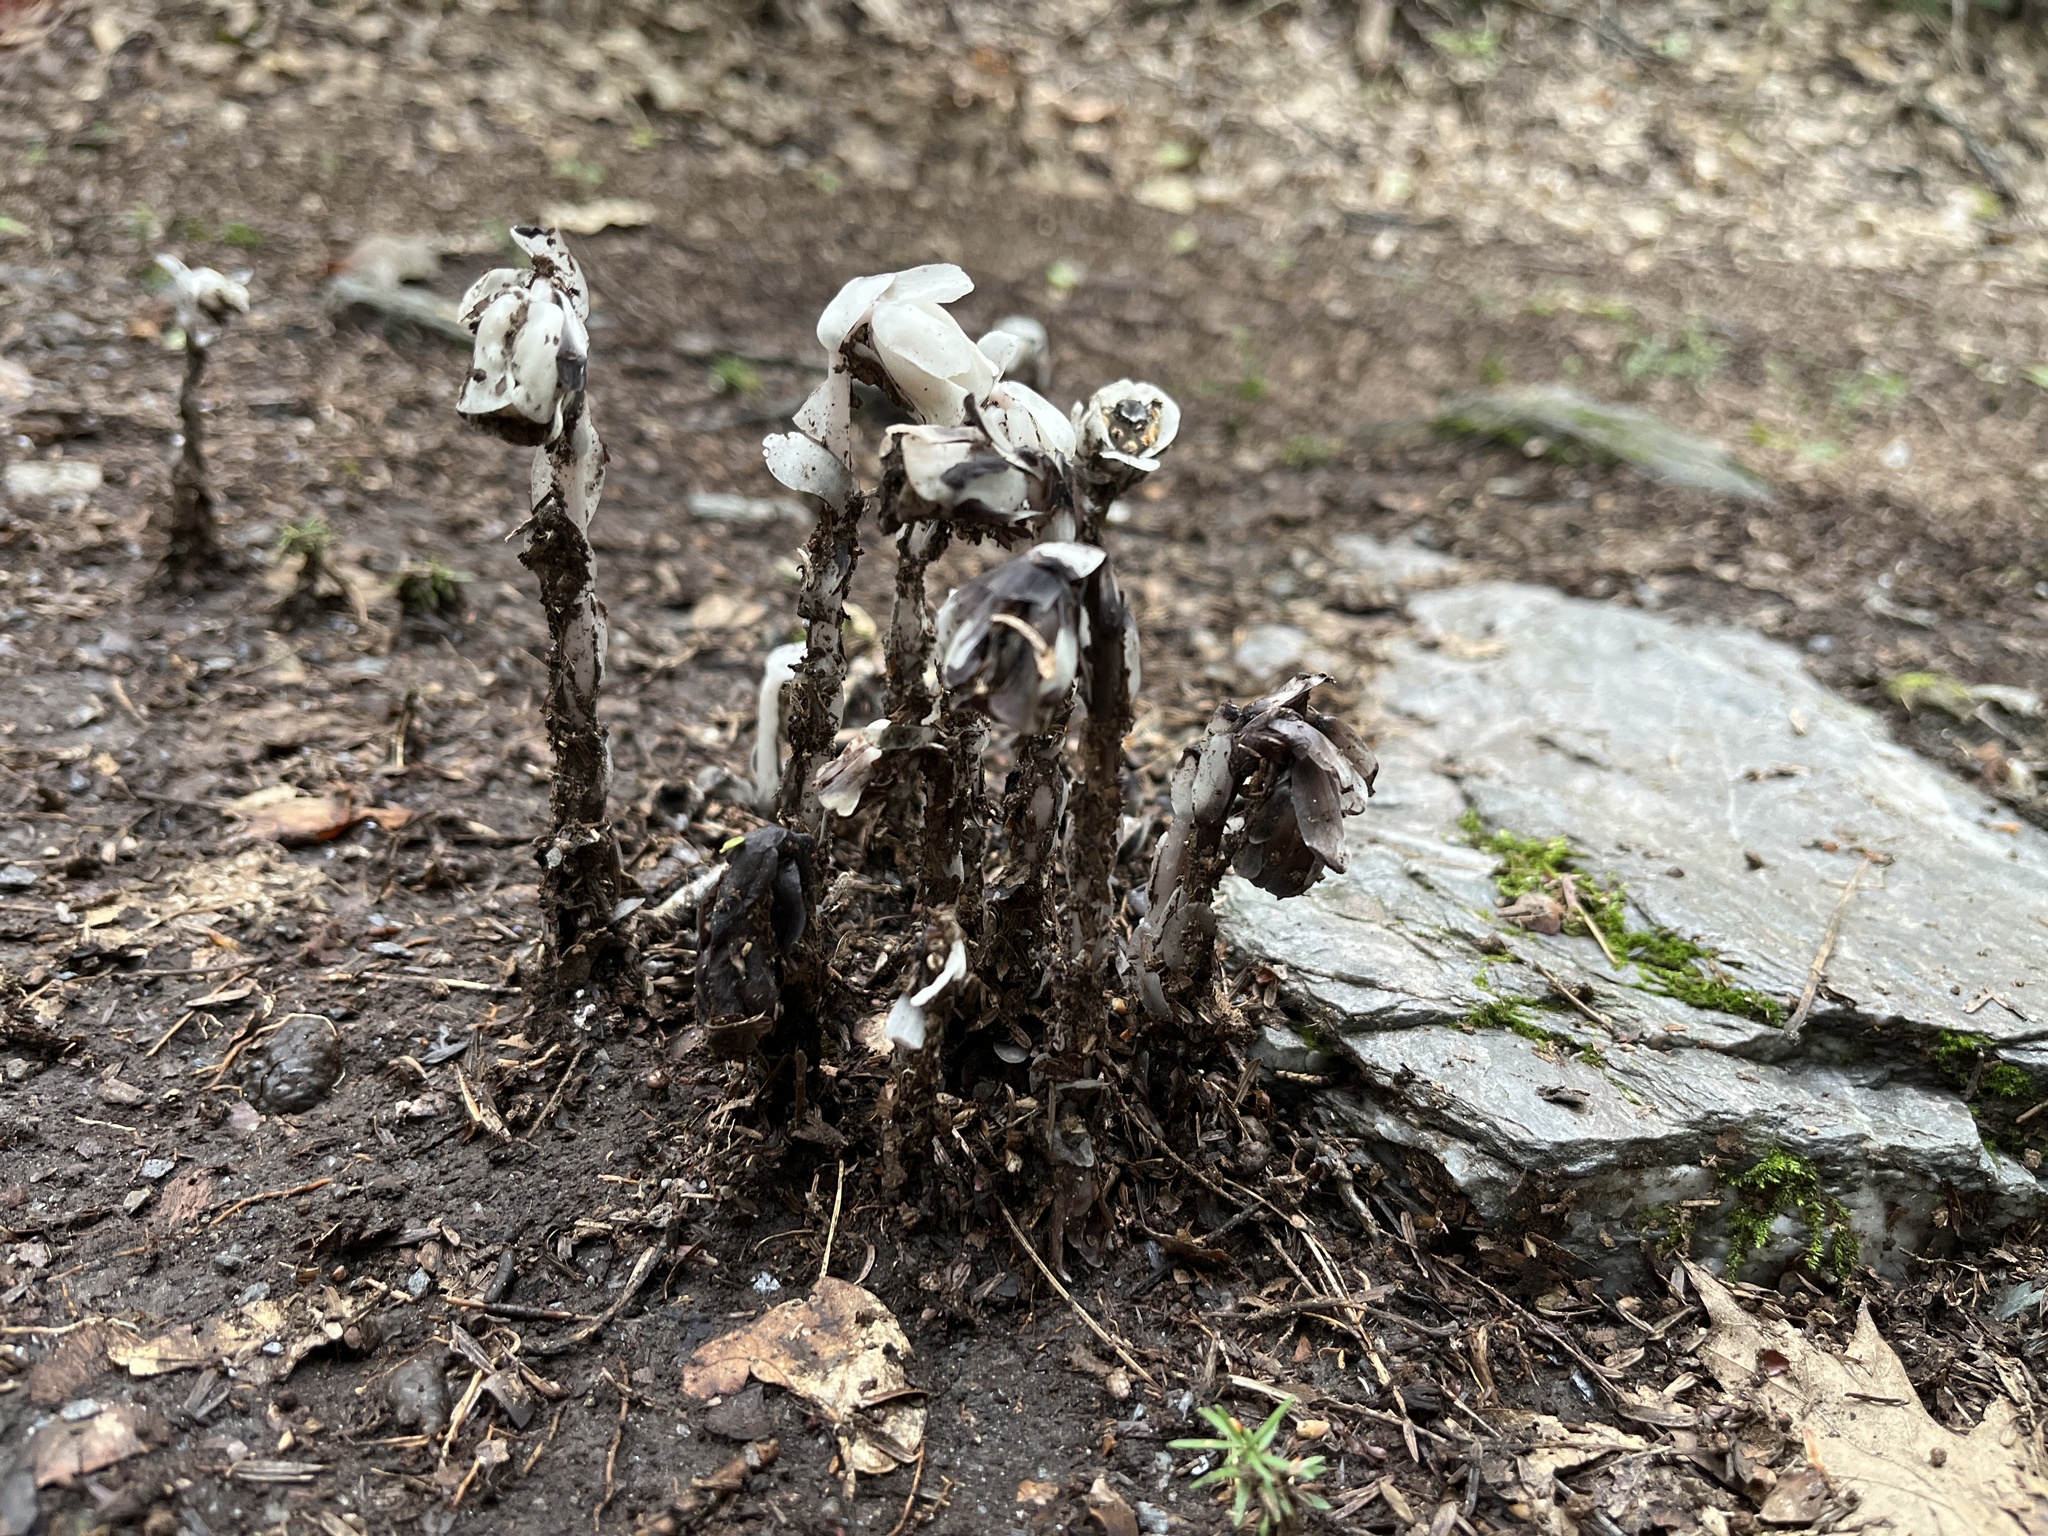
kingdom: Plantae
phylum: Tracheophyta
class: Magnoliopsida
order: Ericales
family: Ericaceae
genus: Monotropa
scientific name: Monotropa uniflora
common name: Convulsion root
